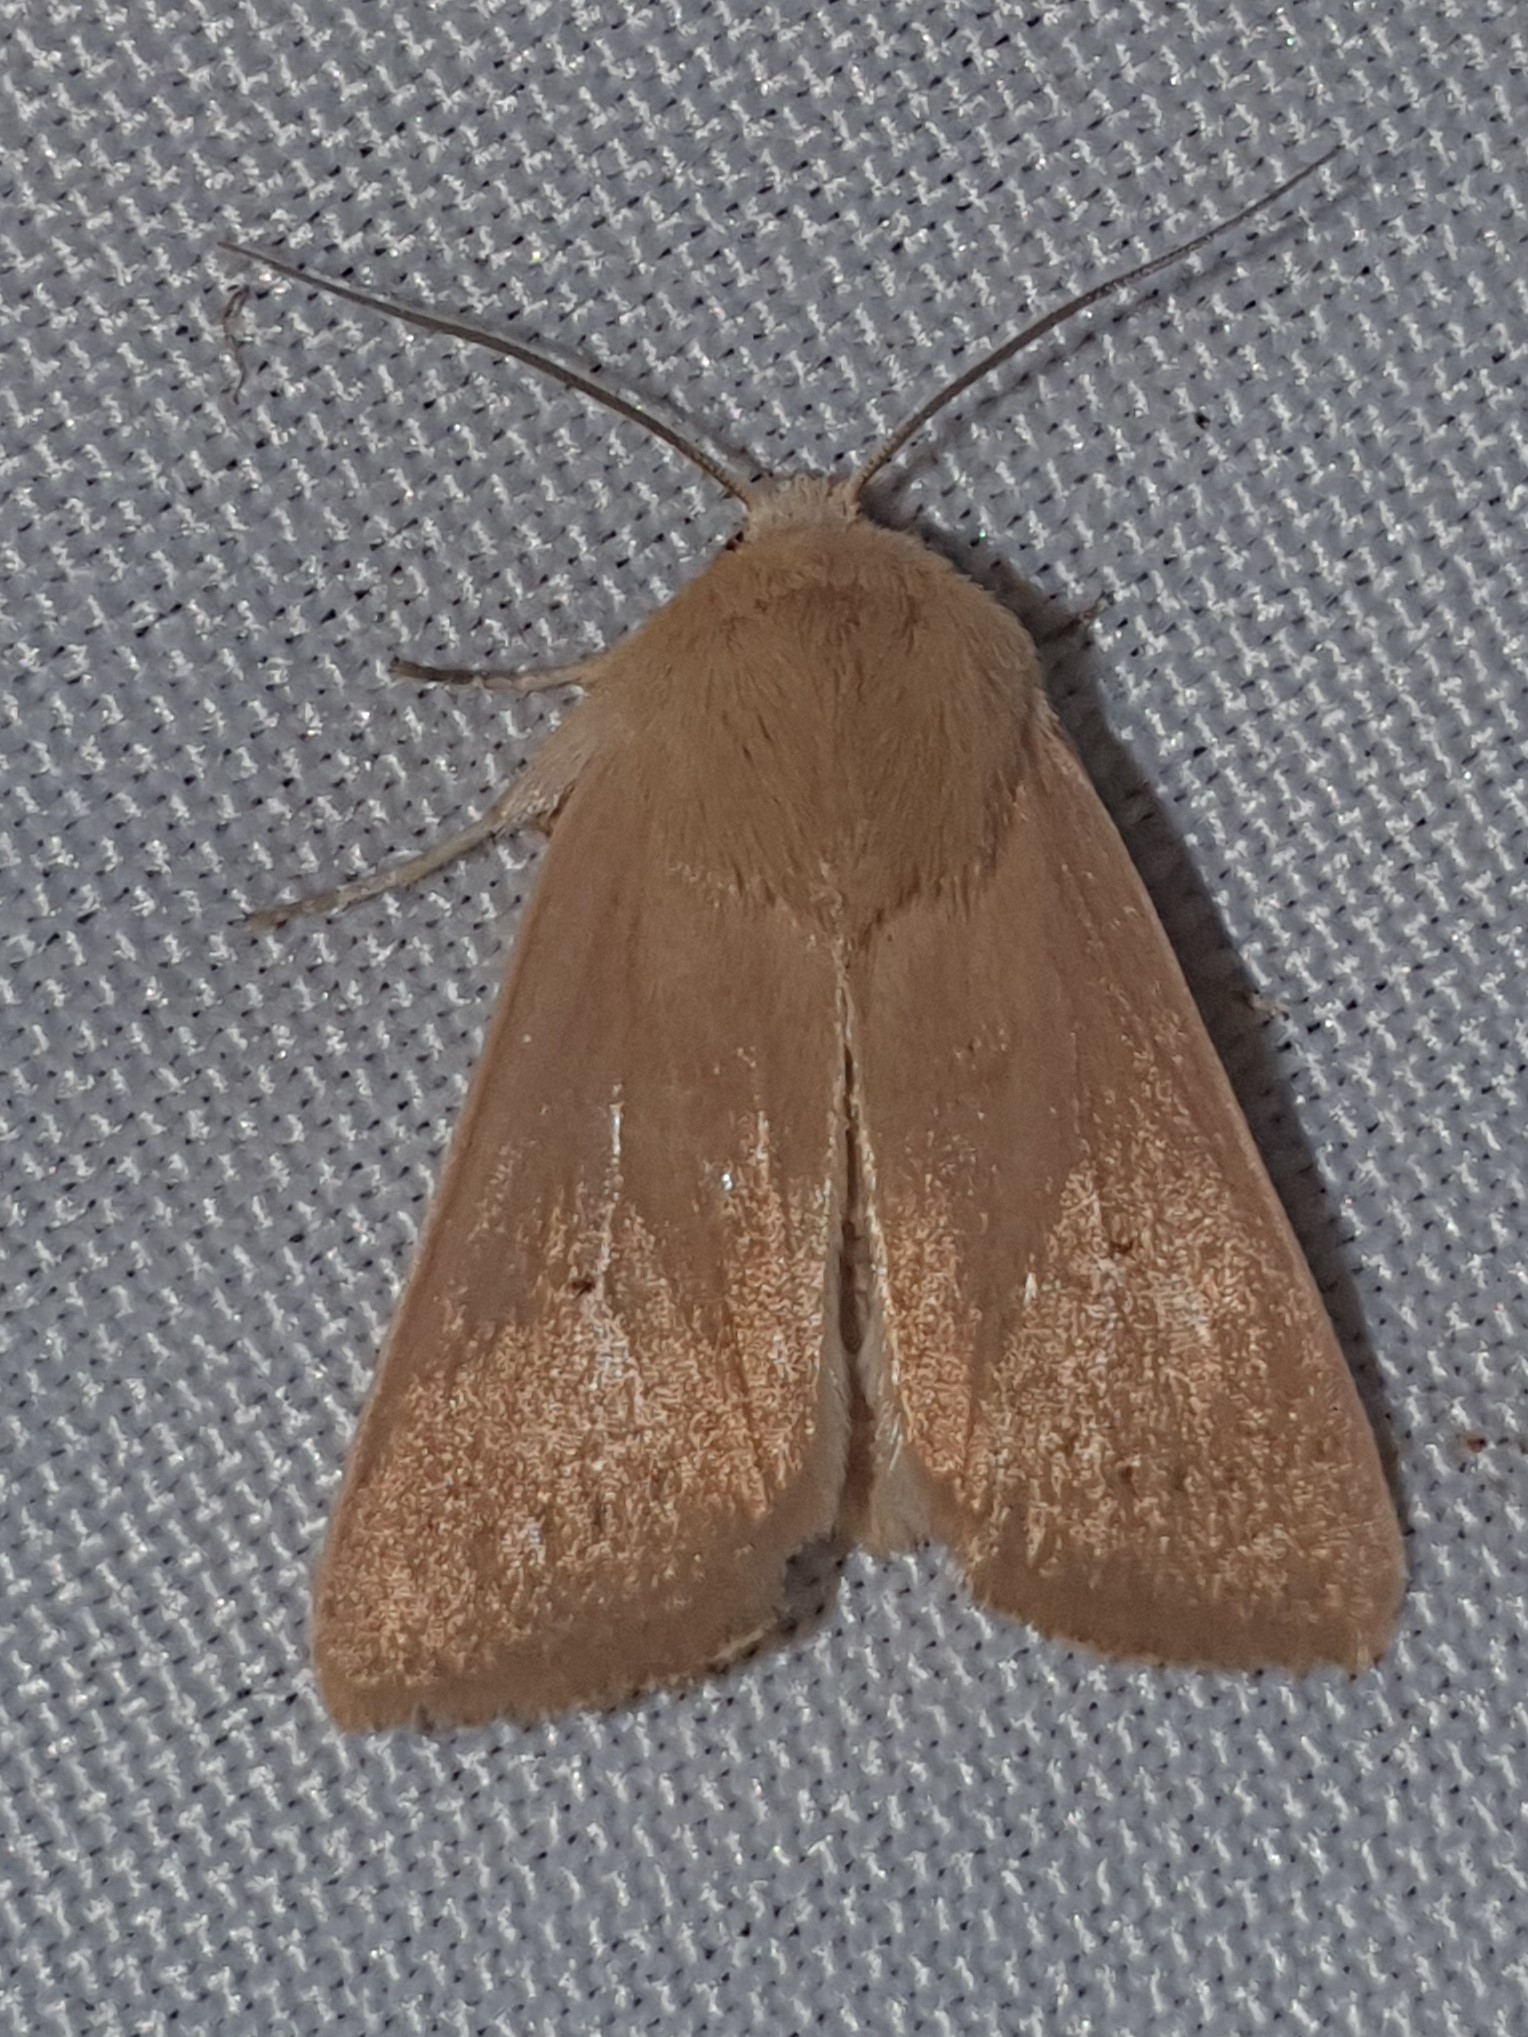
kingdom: Animalia
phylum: Arthropoda
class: Insecta
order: Lepidoptera
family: Noctuidae
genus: Mythimna
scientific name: Mythimna sicula
